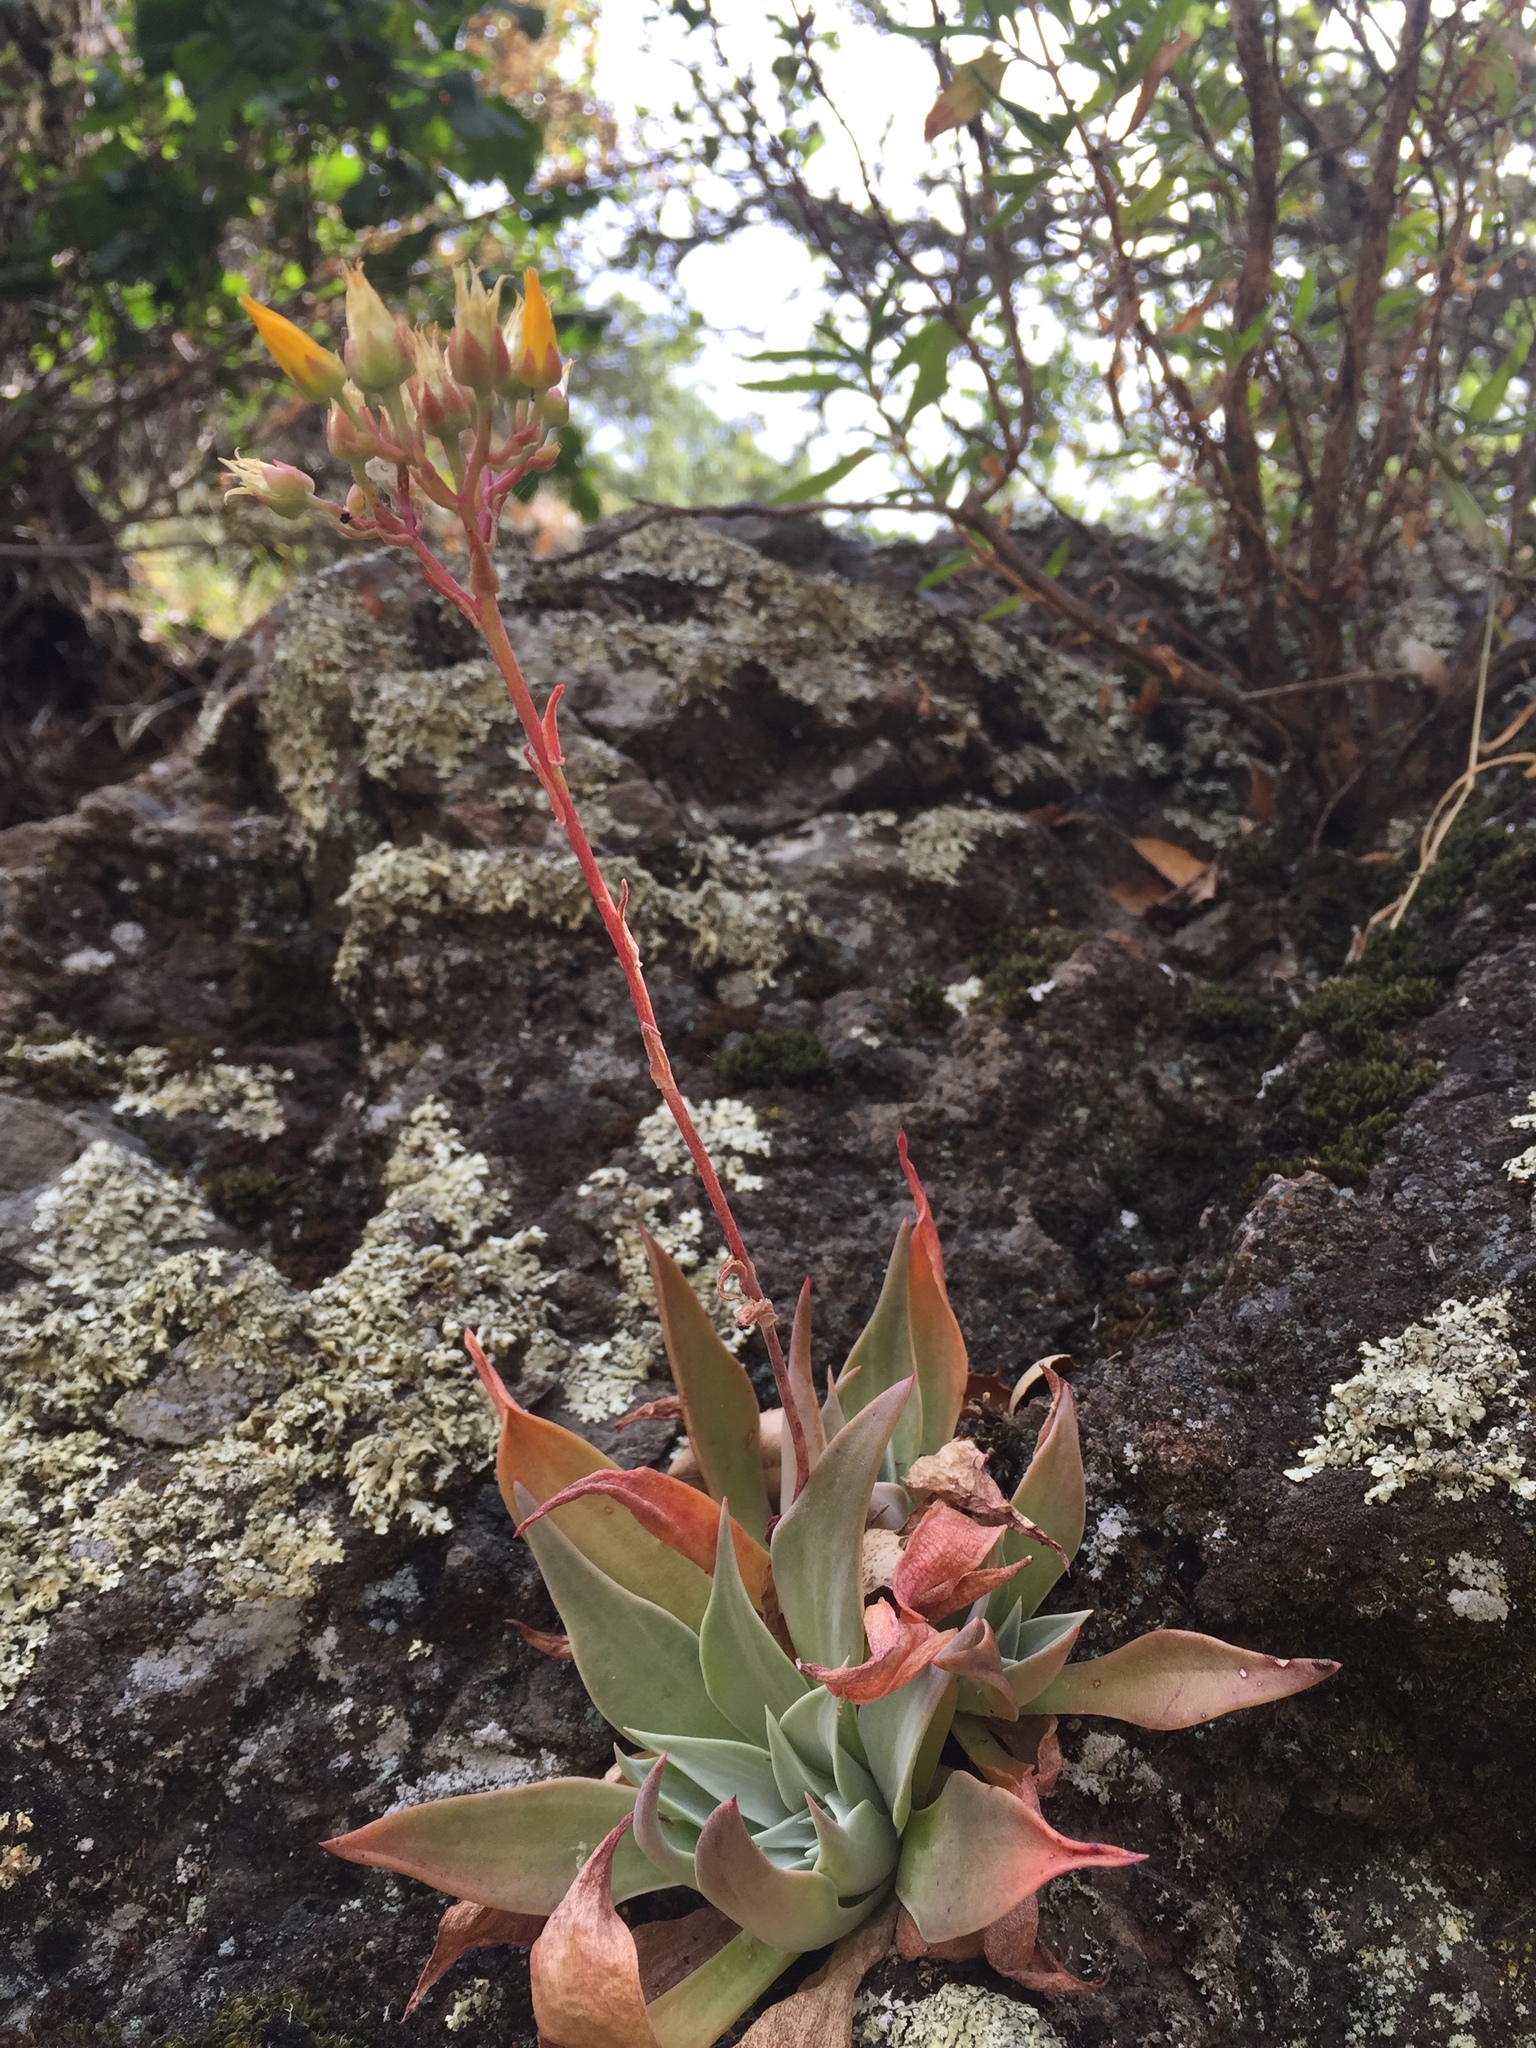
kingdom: Plantae
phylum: Tracheophyta
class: Magnoliopsida
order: Saxifragales
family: Crassulaceae
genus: Dudleya
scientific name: Dudleya cymosa
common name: Canyon dudleya
